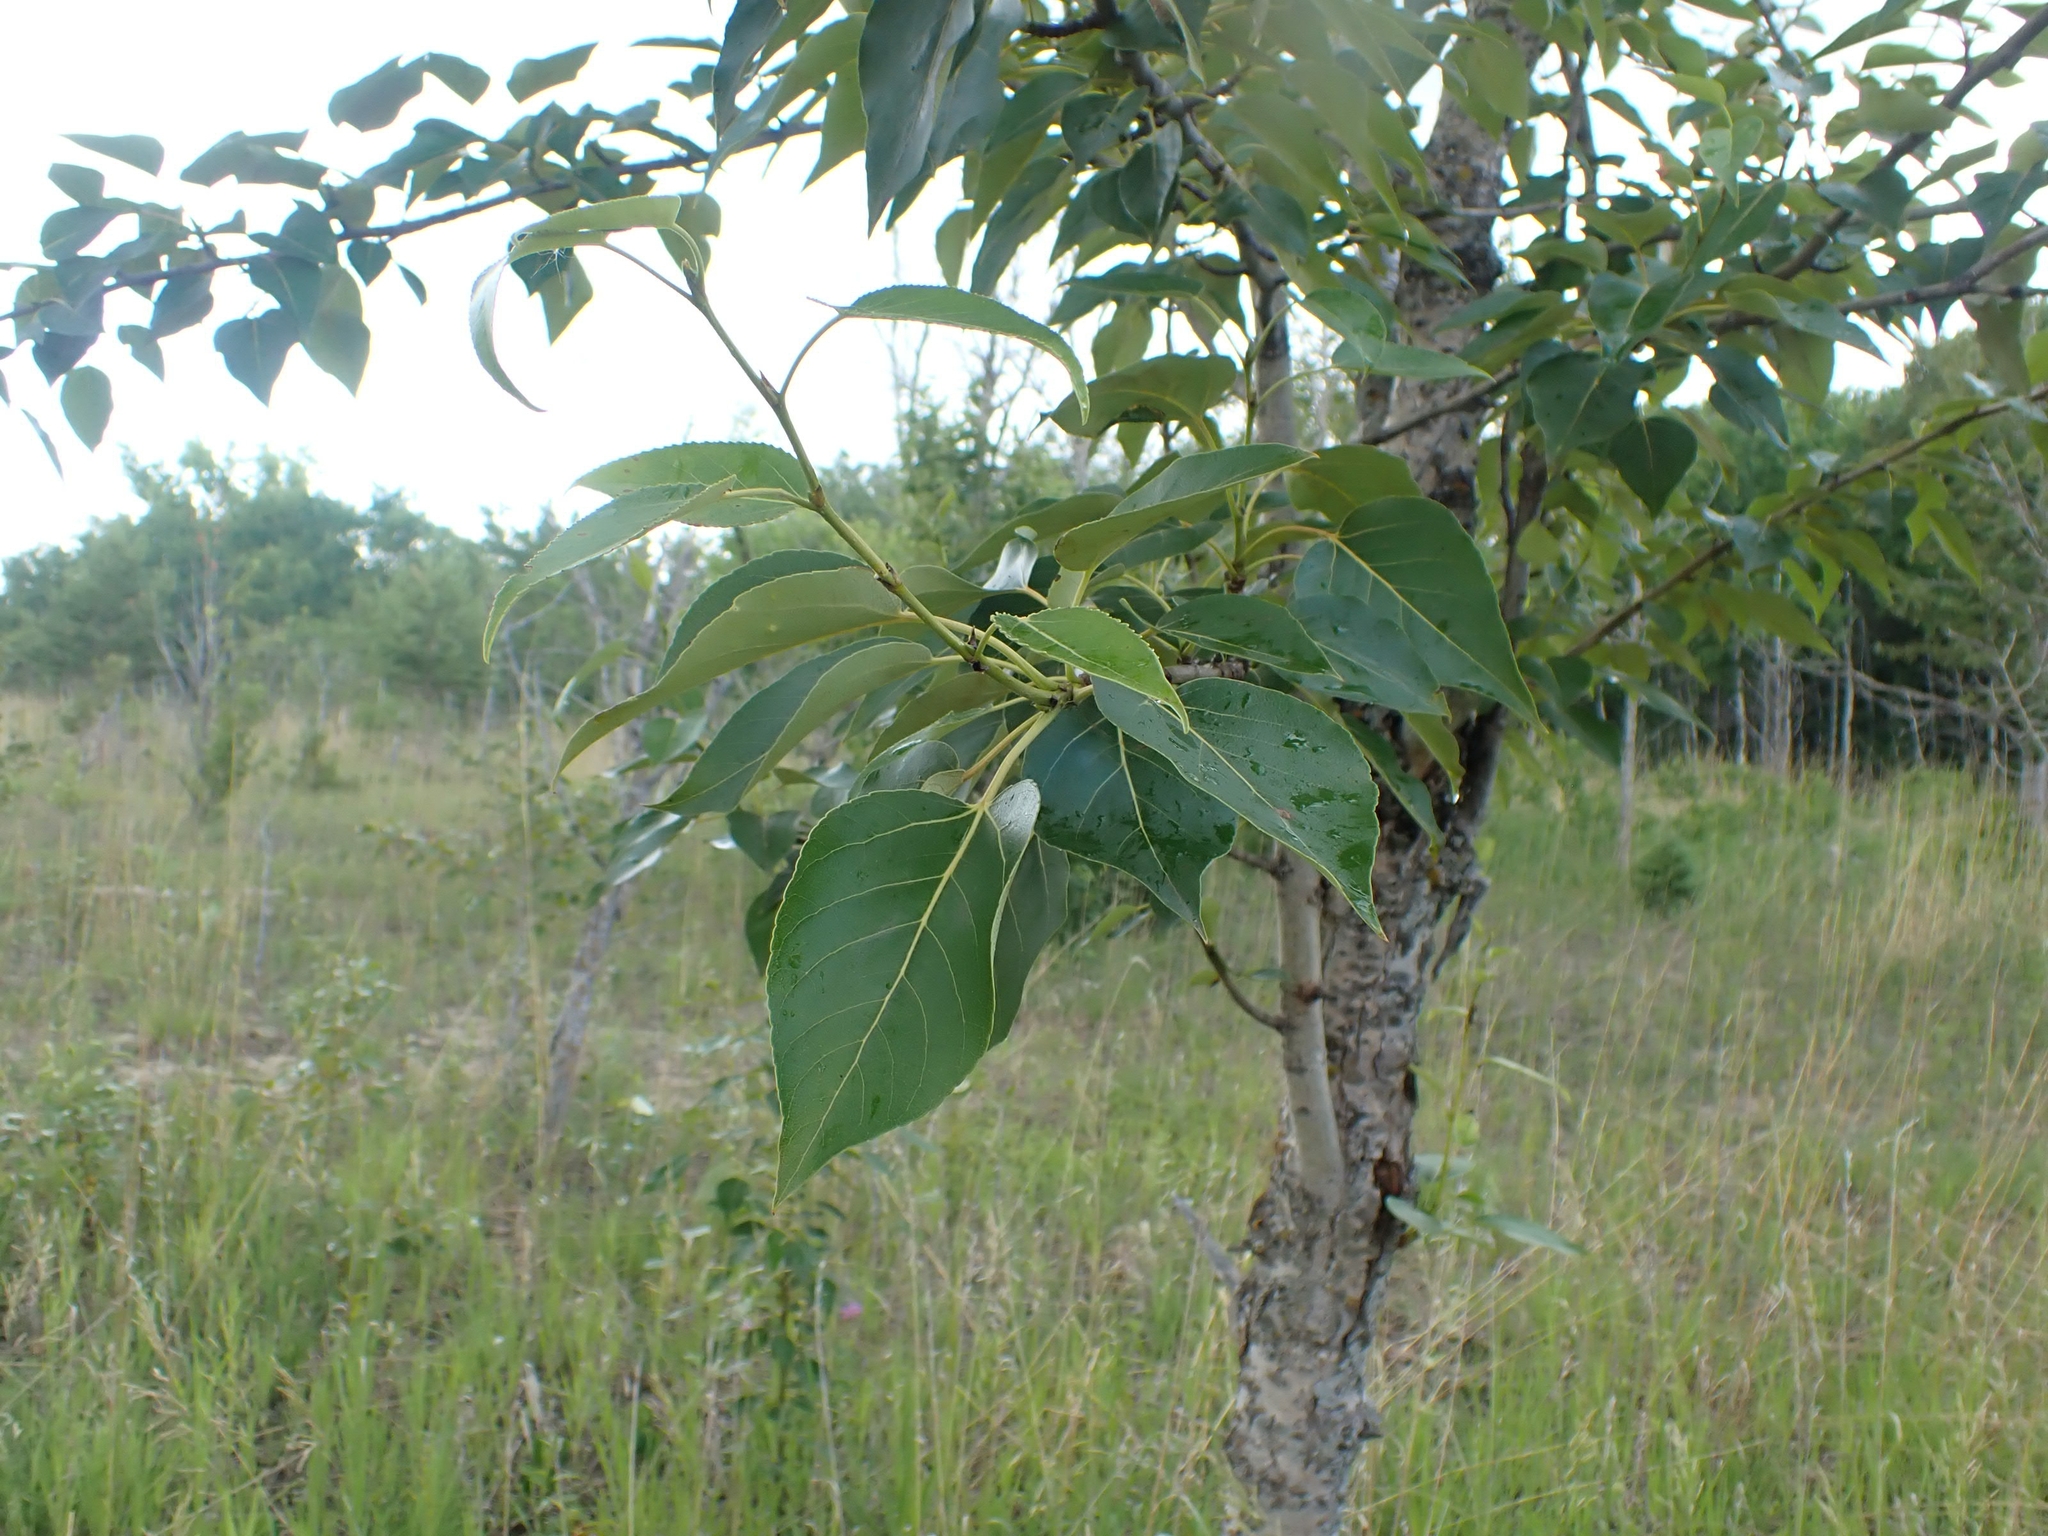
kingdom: Plantae
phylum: Tracheophyta
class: Magnoliopsida
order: Malpighiales
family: Salicaceae
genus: Populus
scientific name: Populus balsamifera
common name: Balsam poplar
